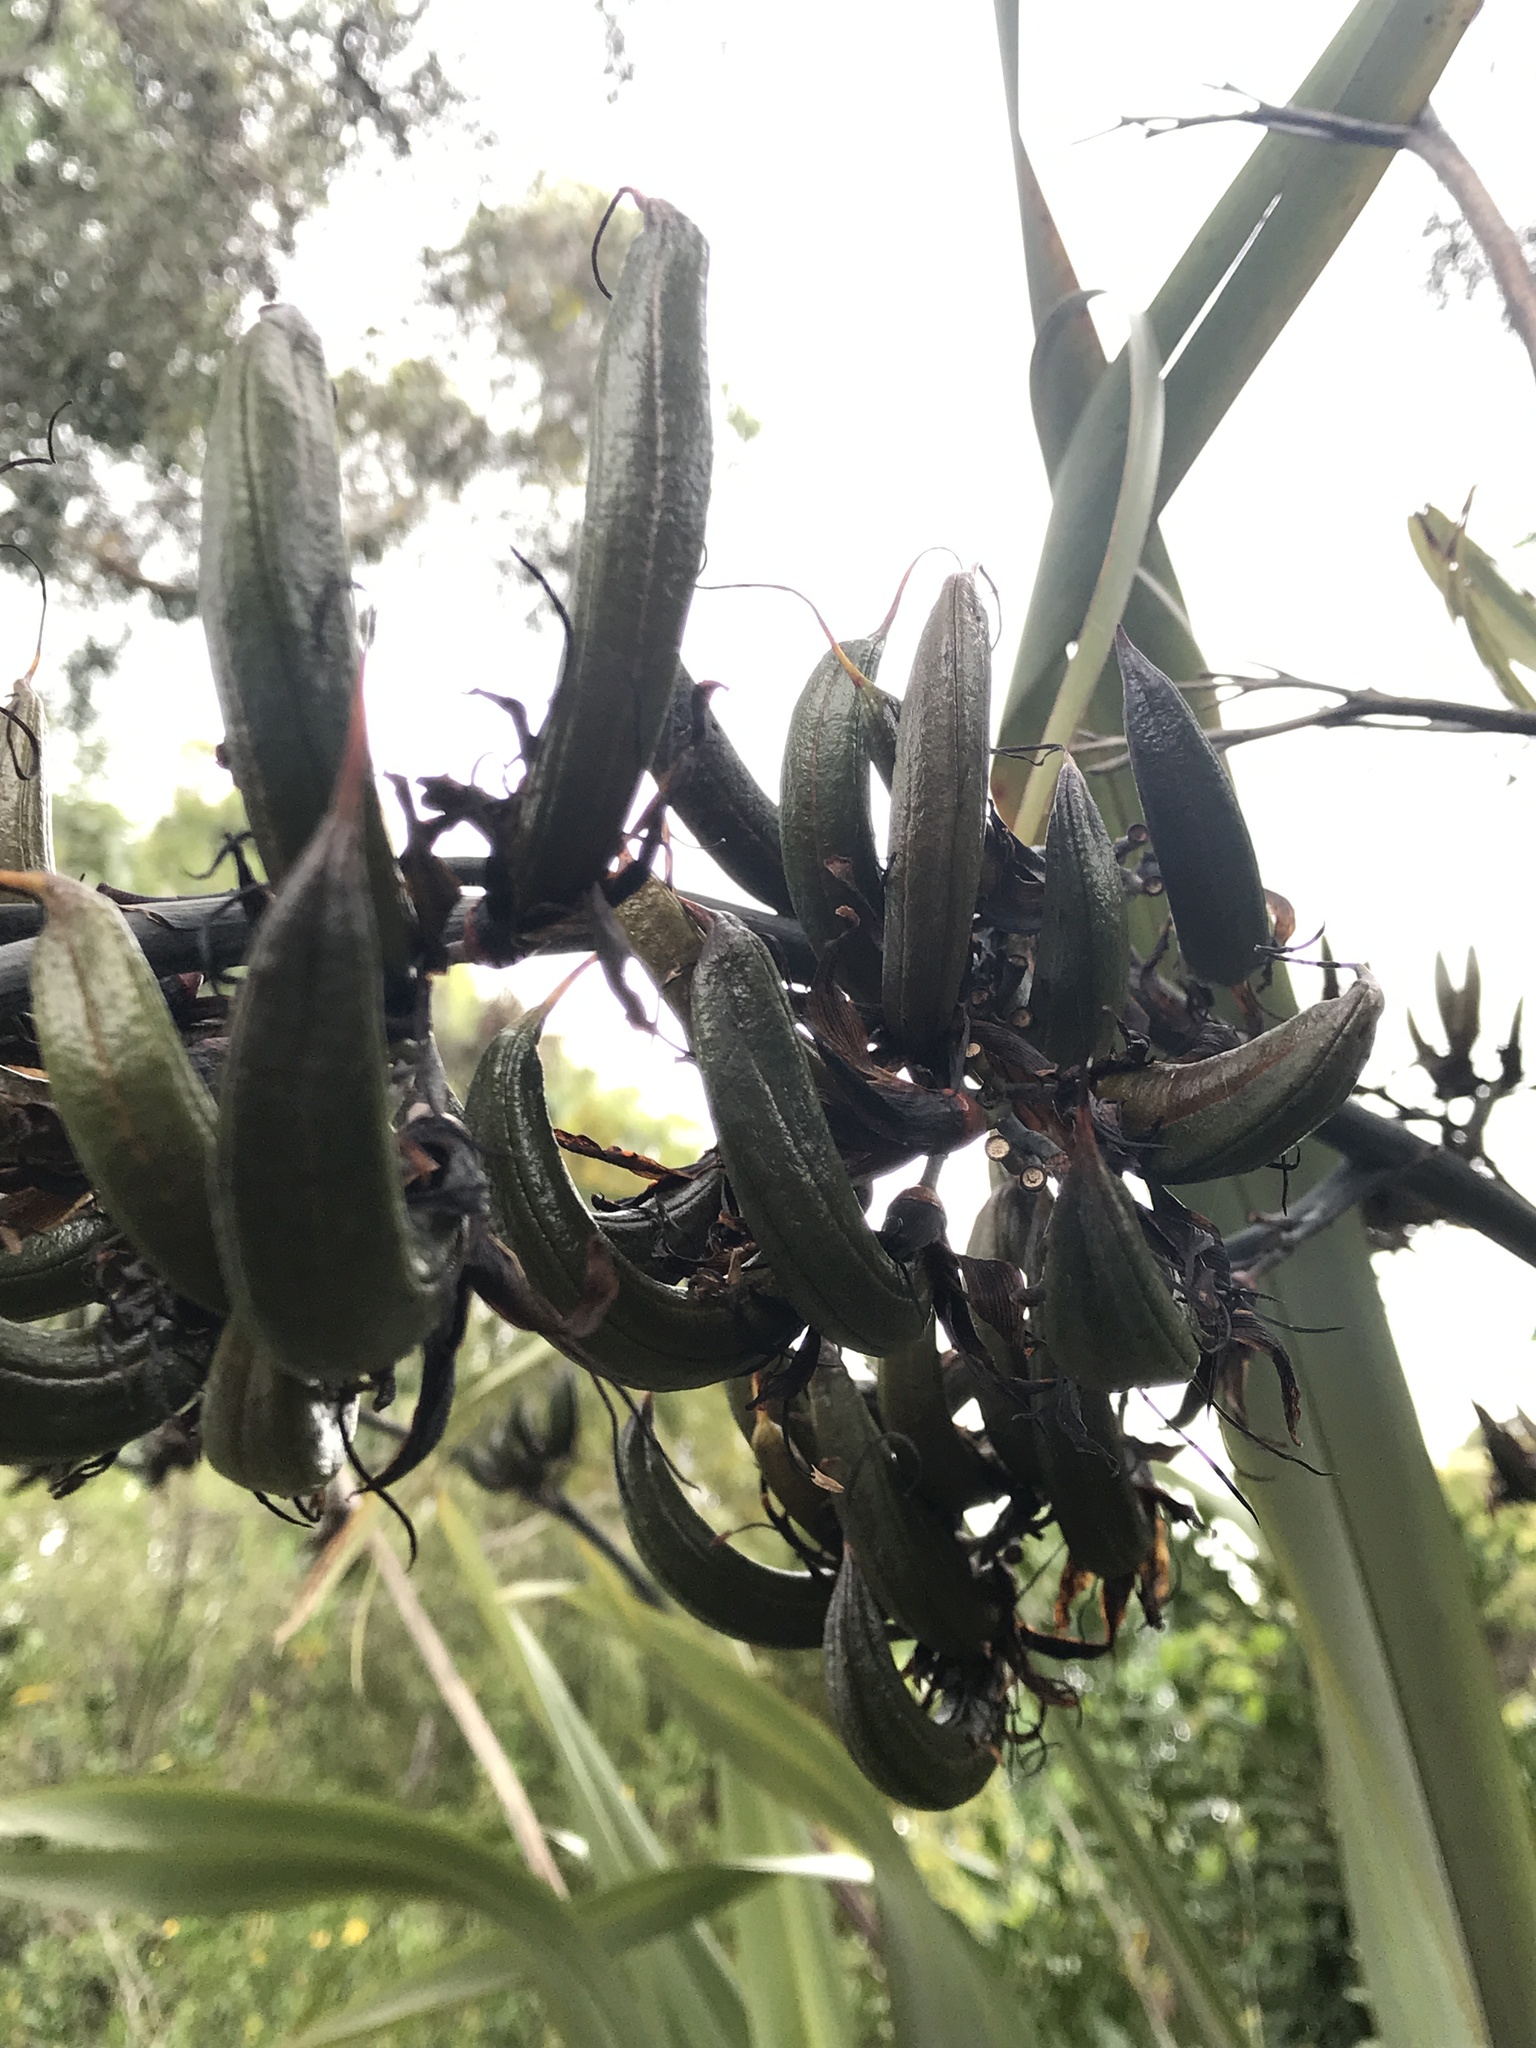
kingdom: Plantae
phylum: Tracheophyta
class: Liliopsida
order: Asparagales
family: Asphodelaceae
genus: Phormium
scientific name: Phormium tenax
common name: New zealand flax
